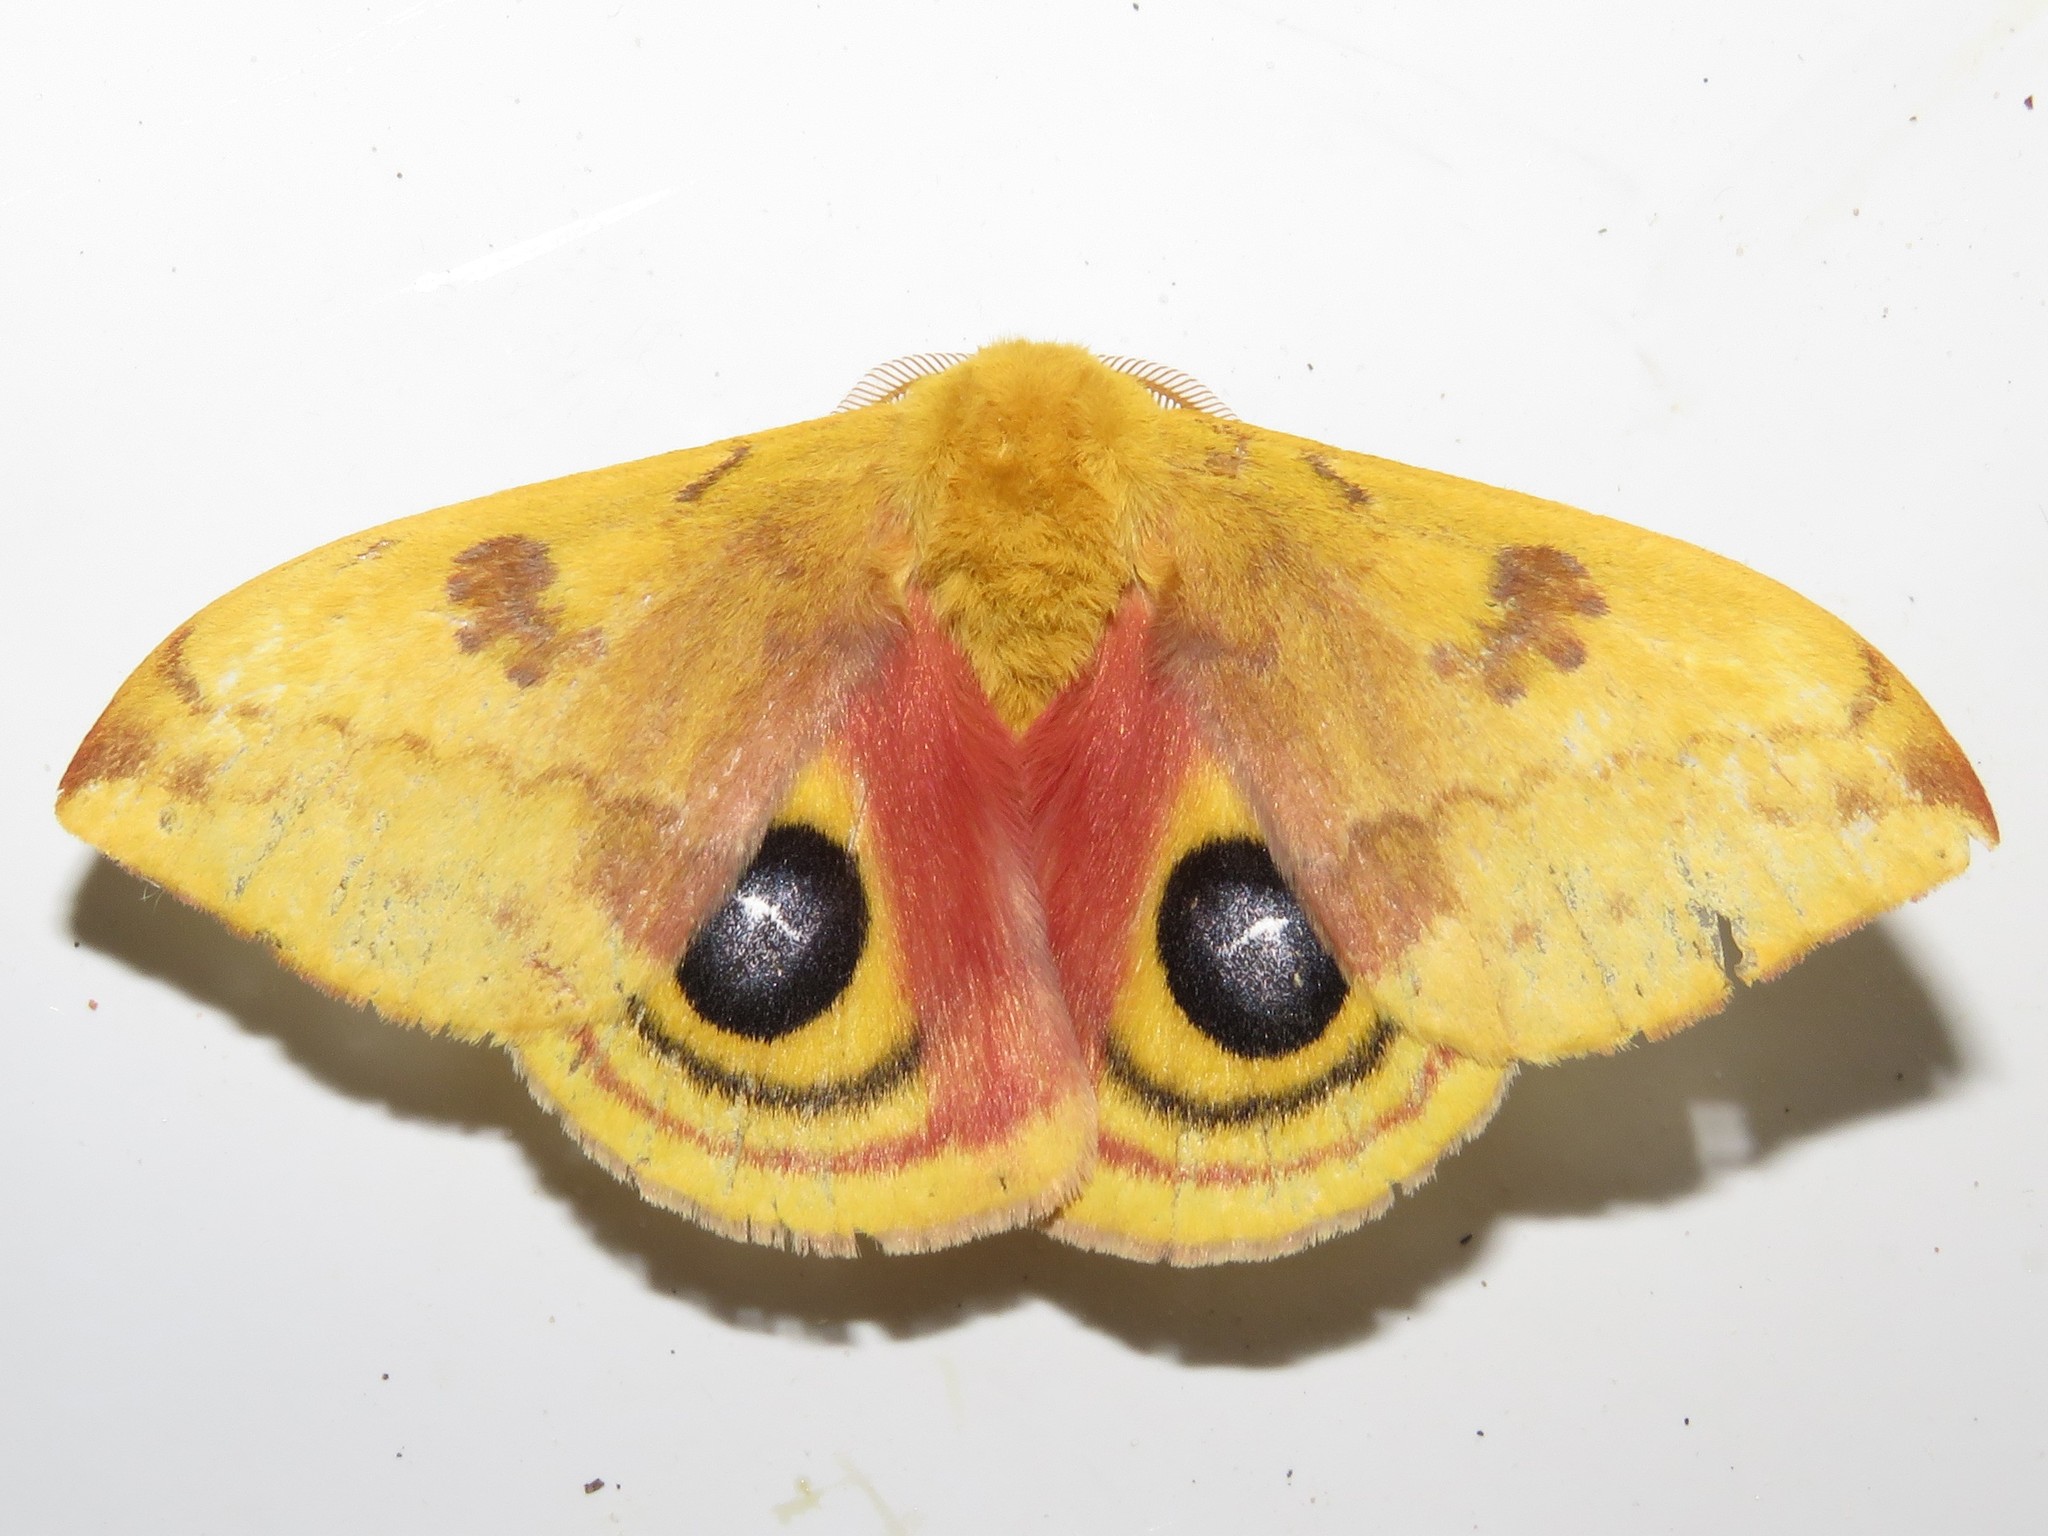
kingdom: Animalia
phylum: Arthropoda
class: Insecta
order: Lepidoptera
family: Saturniidae
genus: Automeris
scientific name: Automeris io
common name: Io moth
